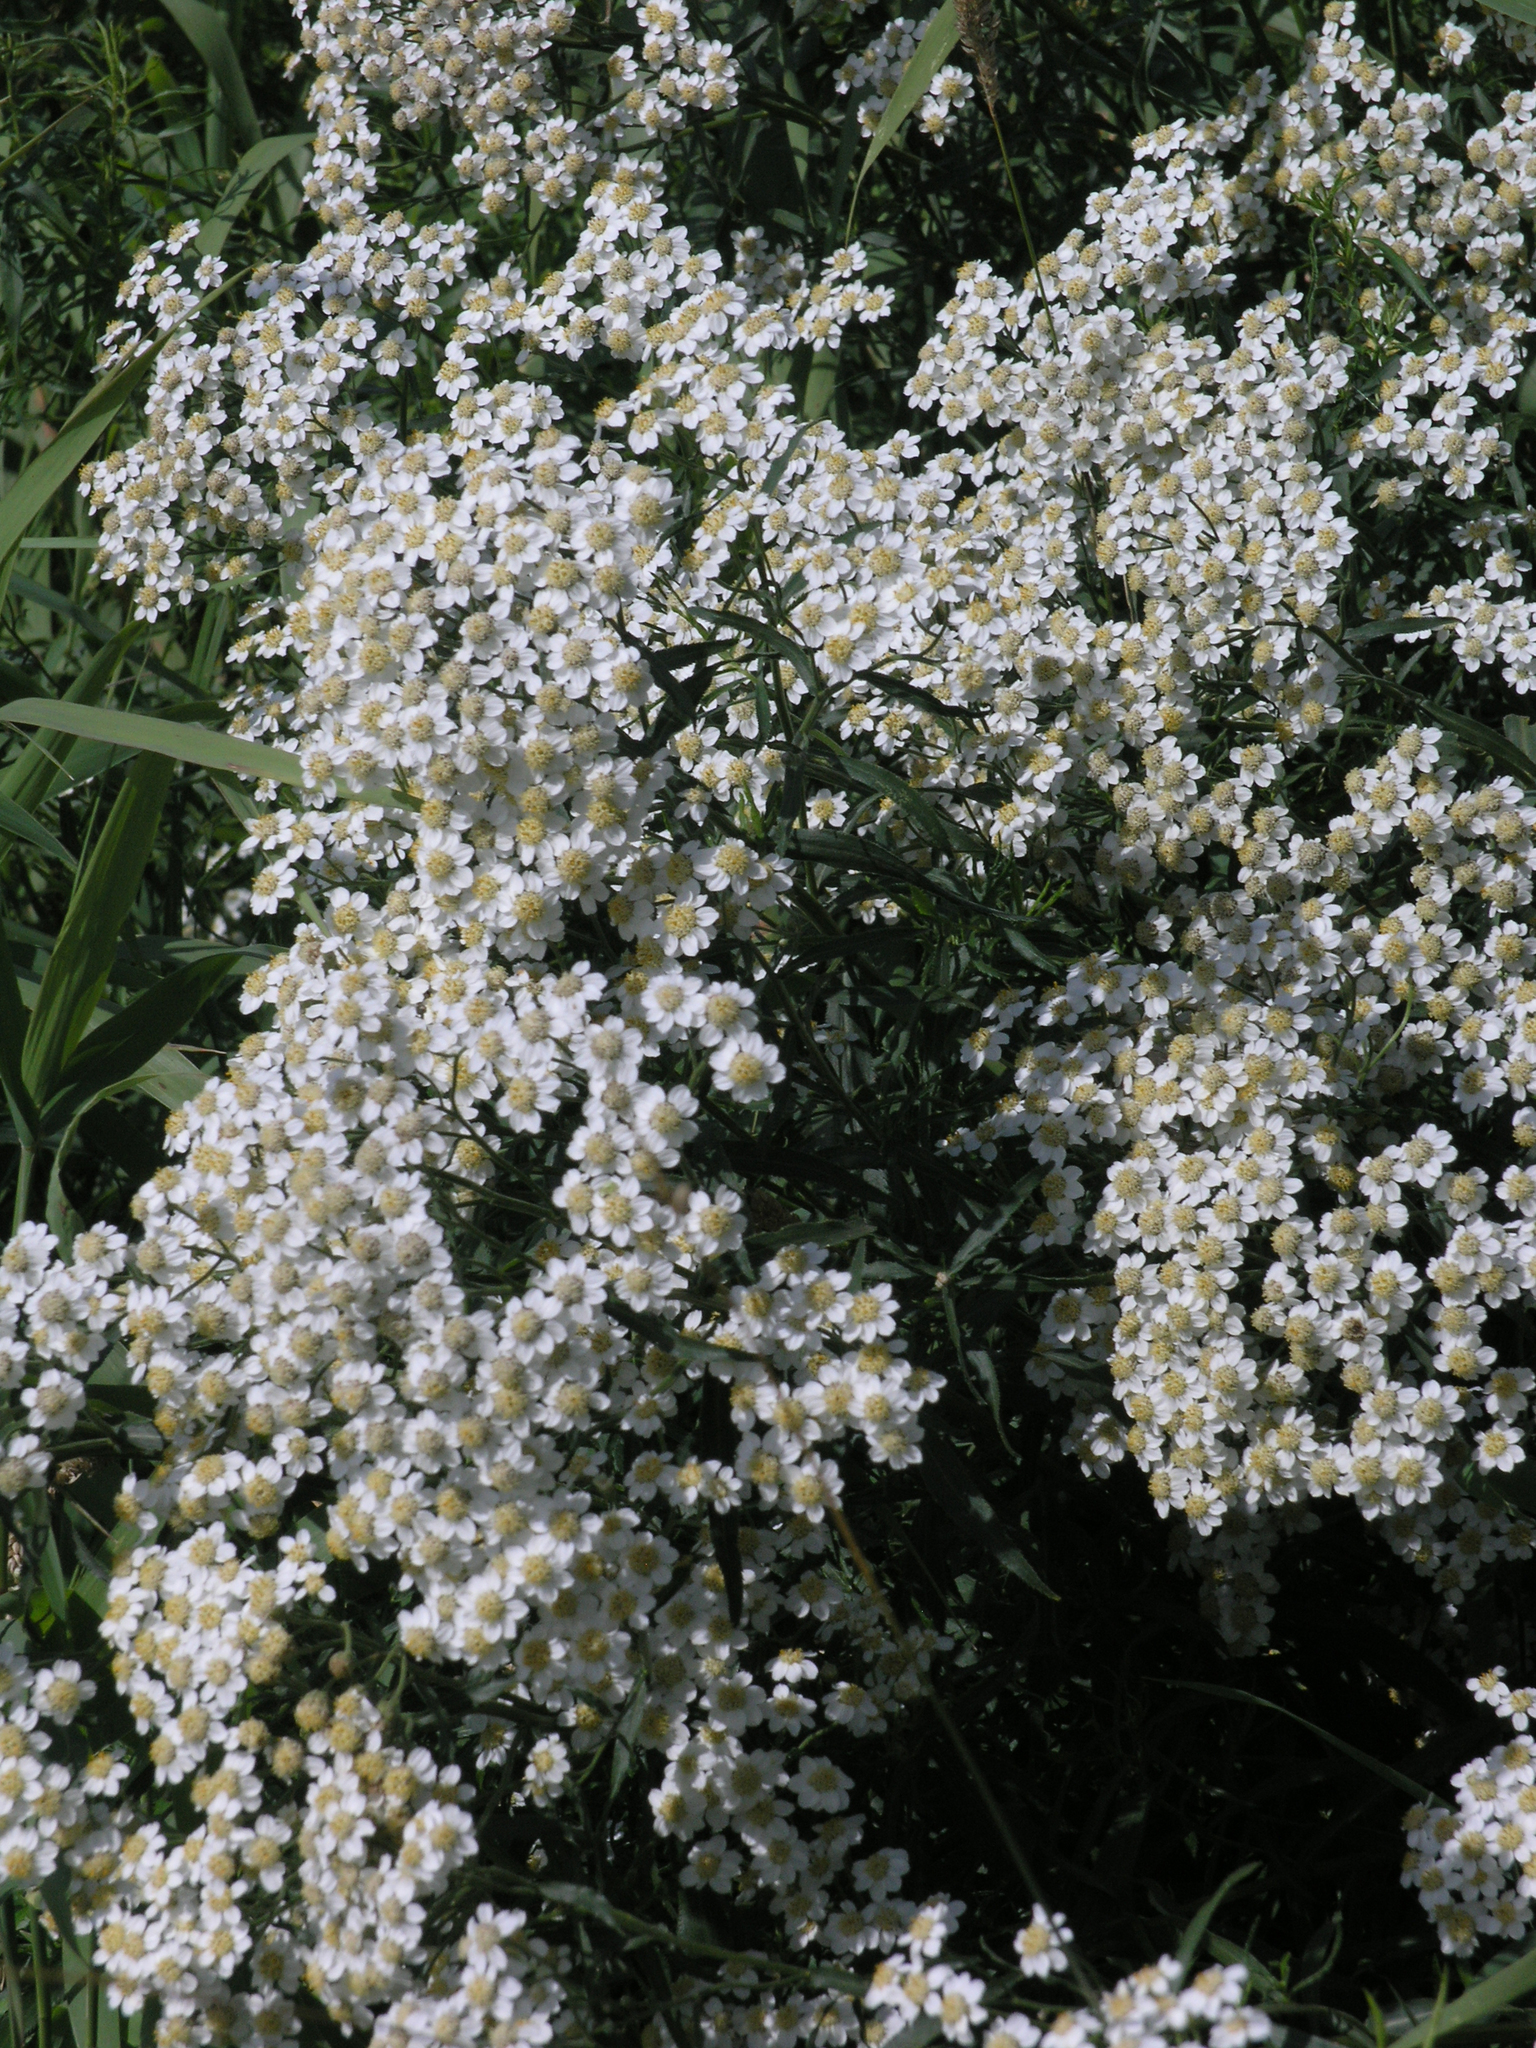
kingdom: Plantae
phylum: Tracheophyta
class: Magnoliopsida
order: Asterales
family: Asteraceae
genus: Achillea
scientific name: Achillea salicifolia
